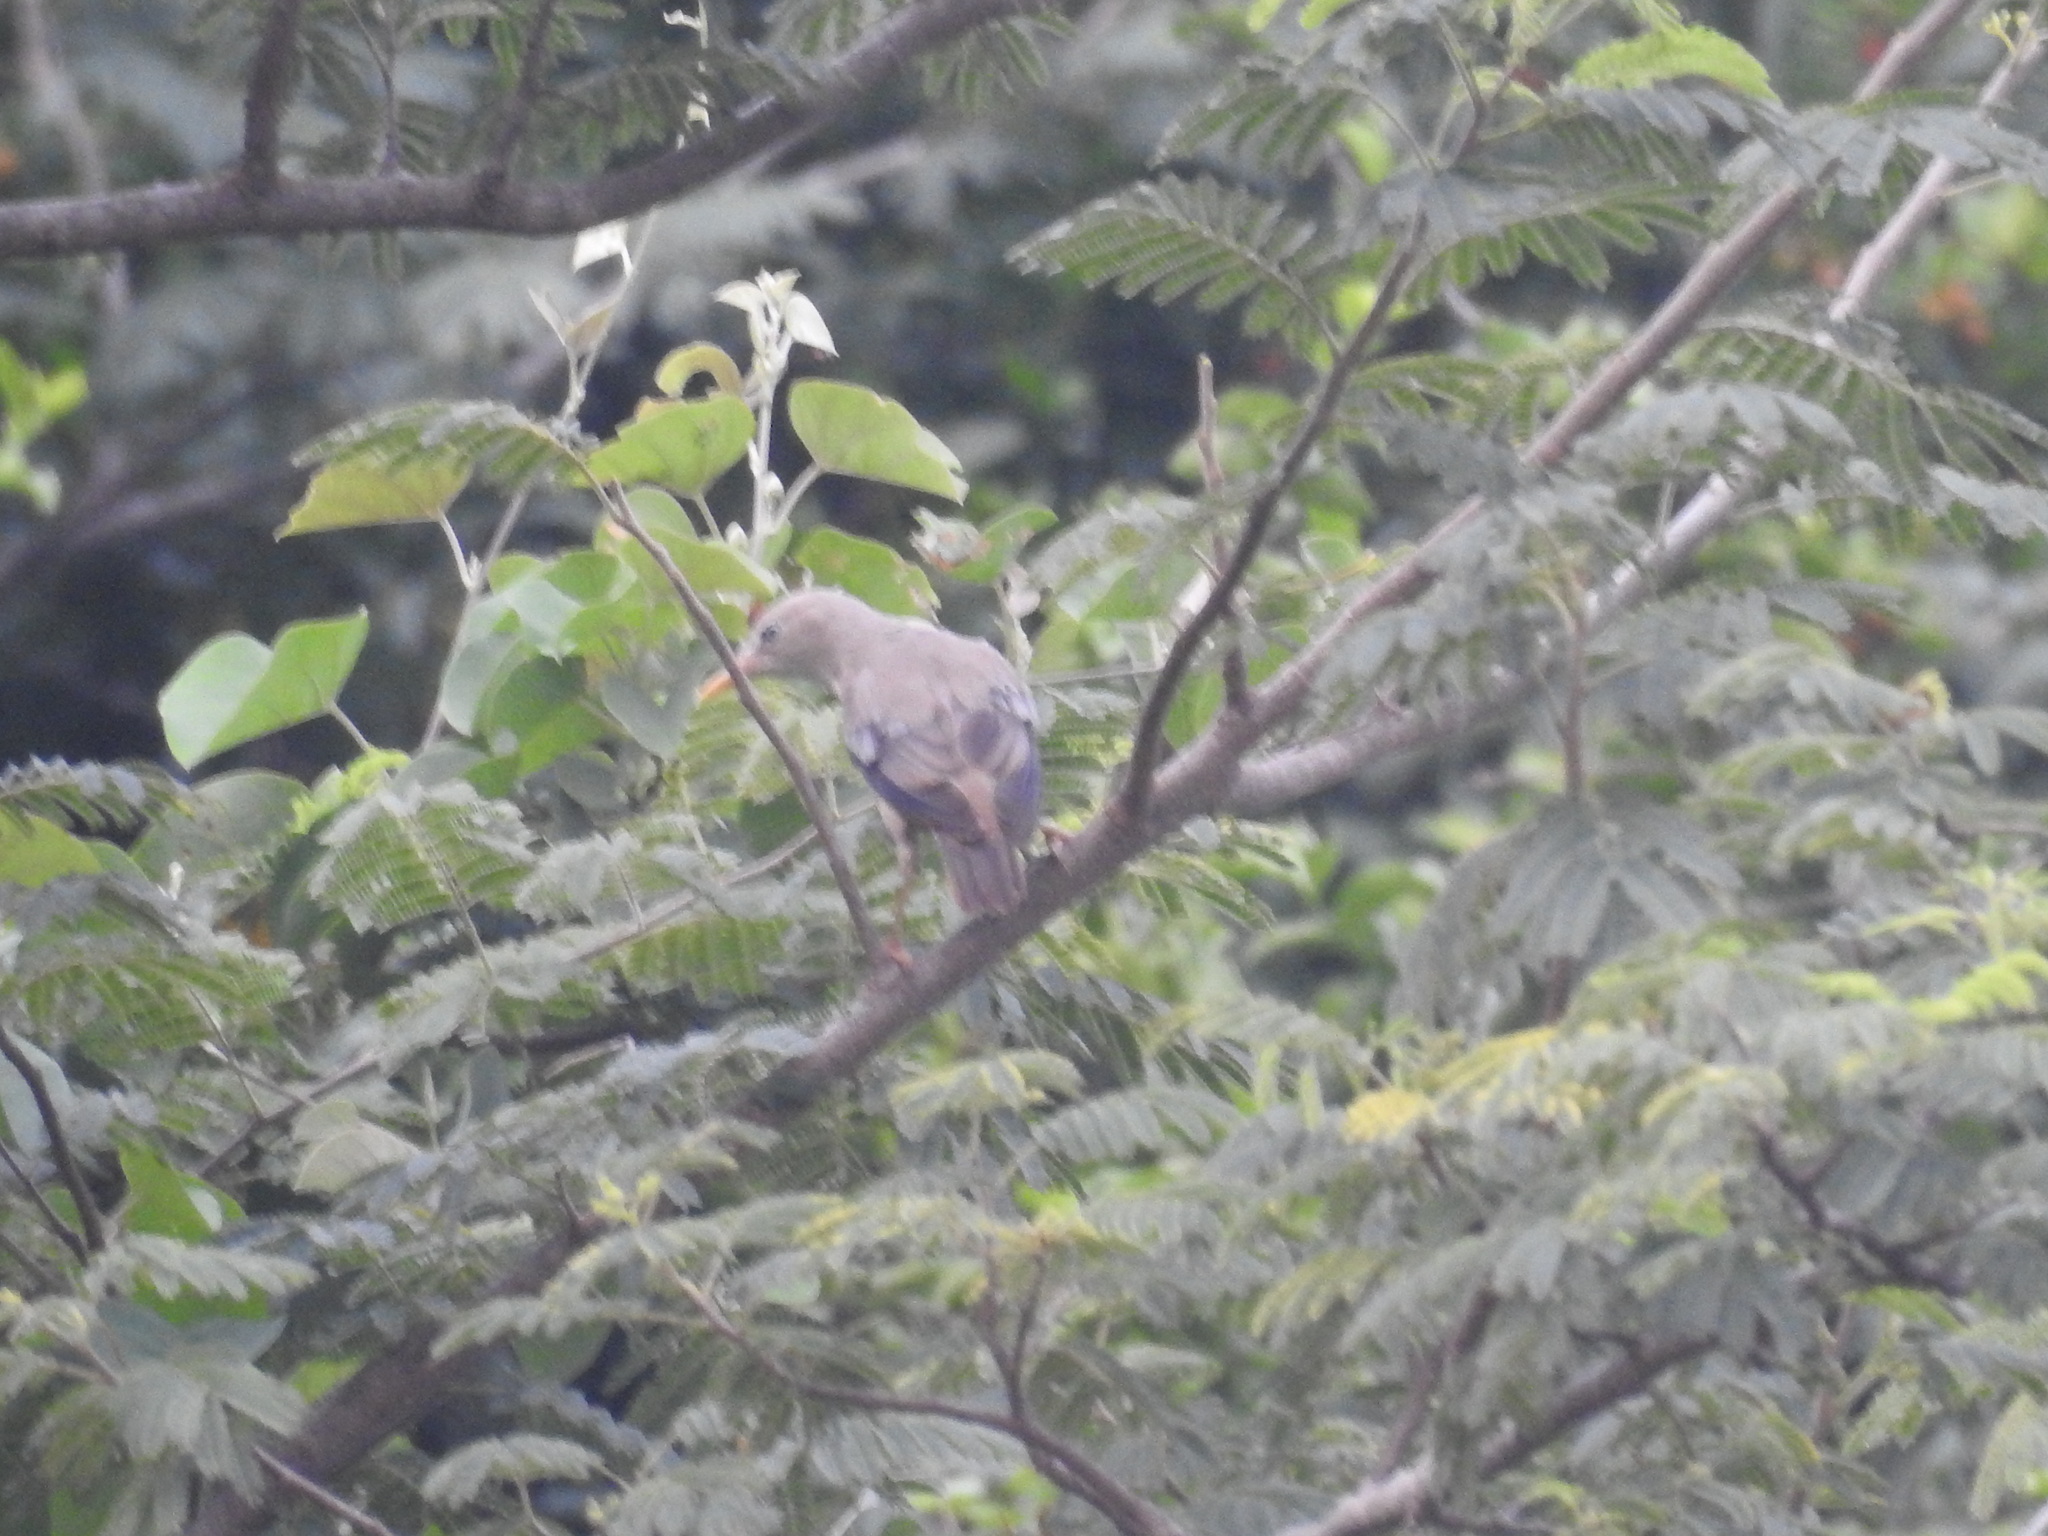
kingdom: Animalia
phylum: Chordata
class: Aves
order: Passeriformes
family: Sturnidae
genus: Sturnia
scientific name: Sturnia malabarica
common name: Chestnut-tailed starling
